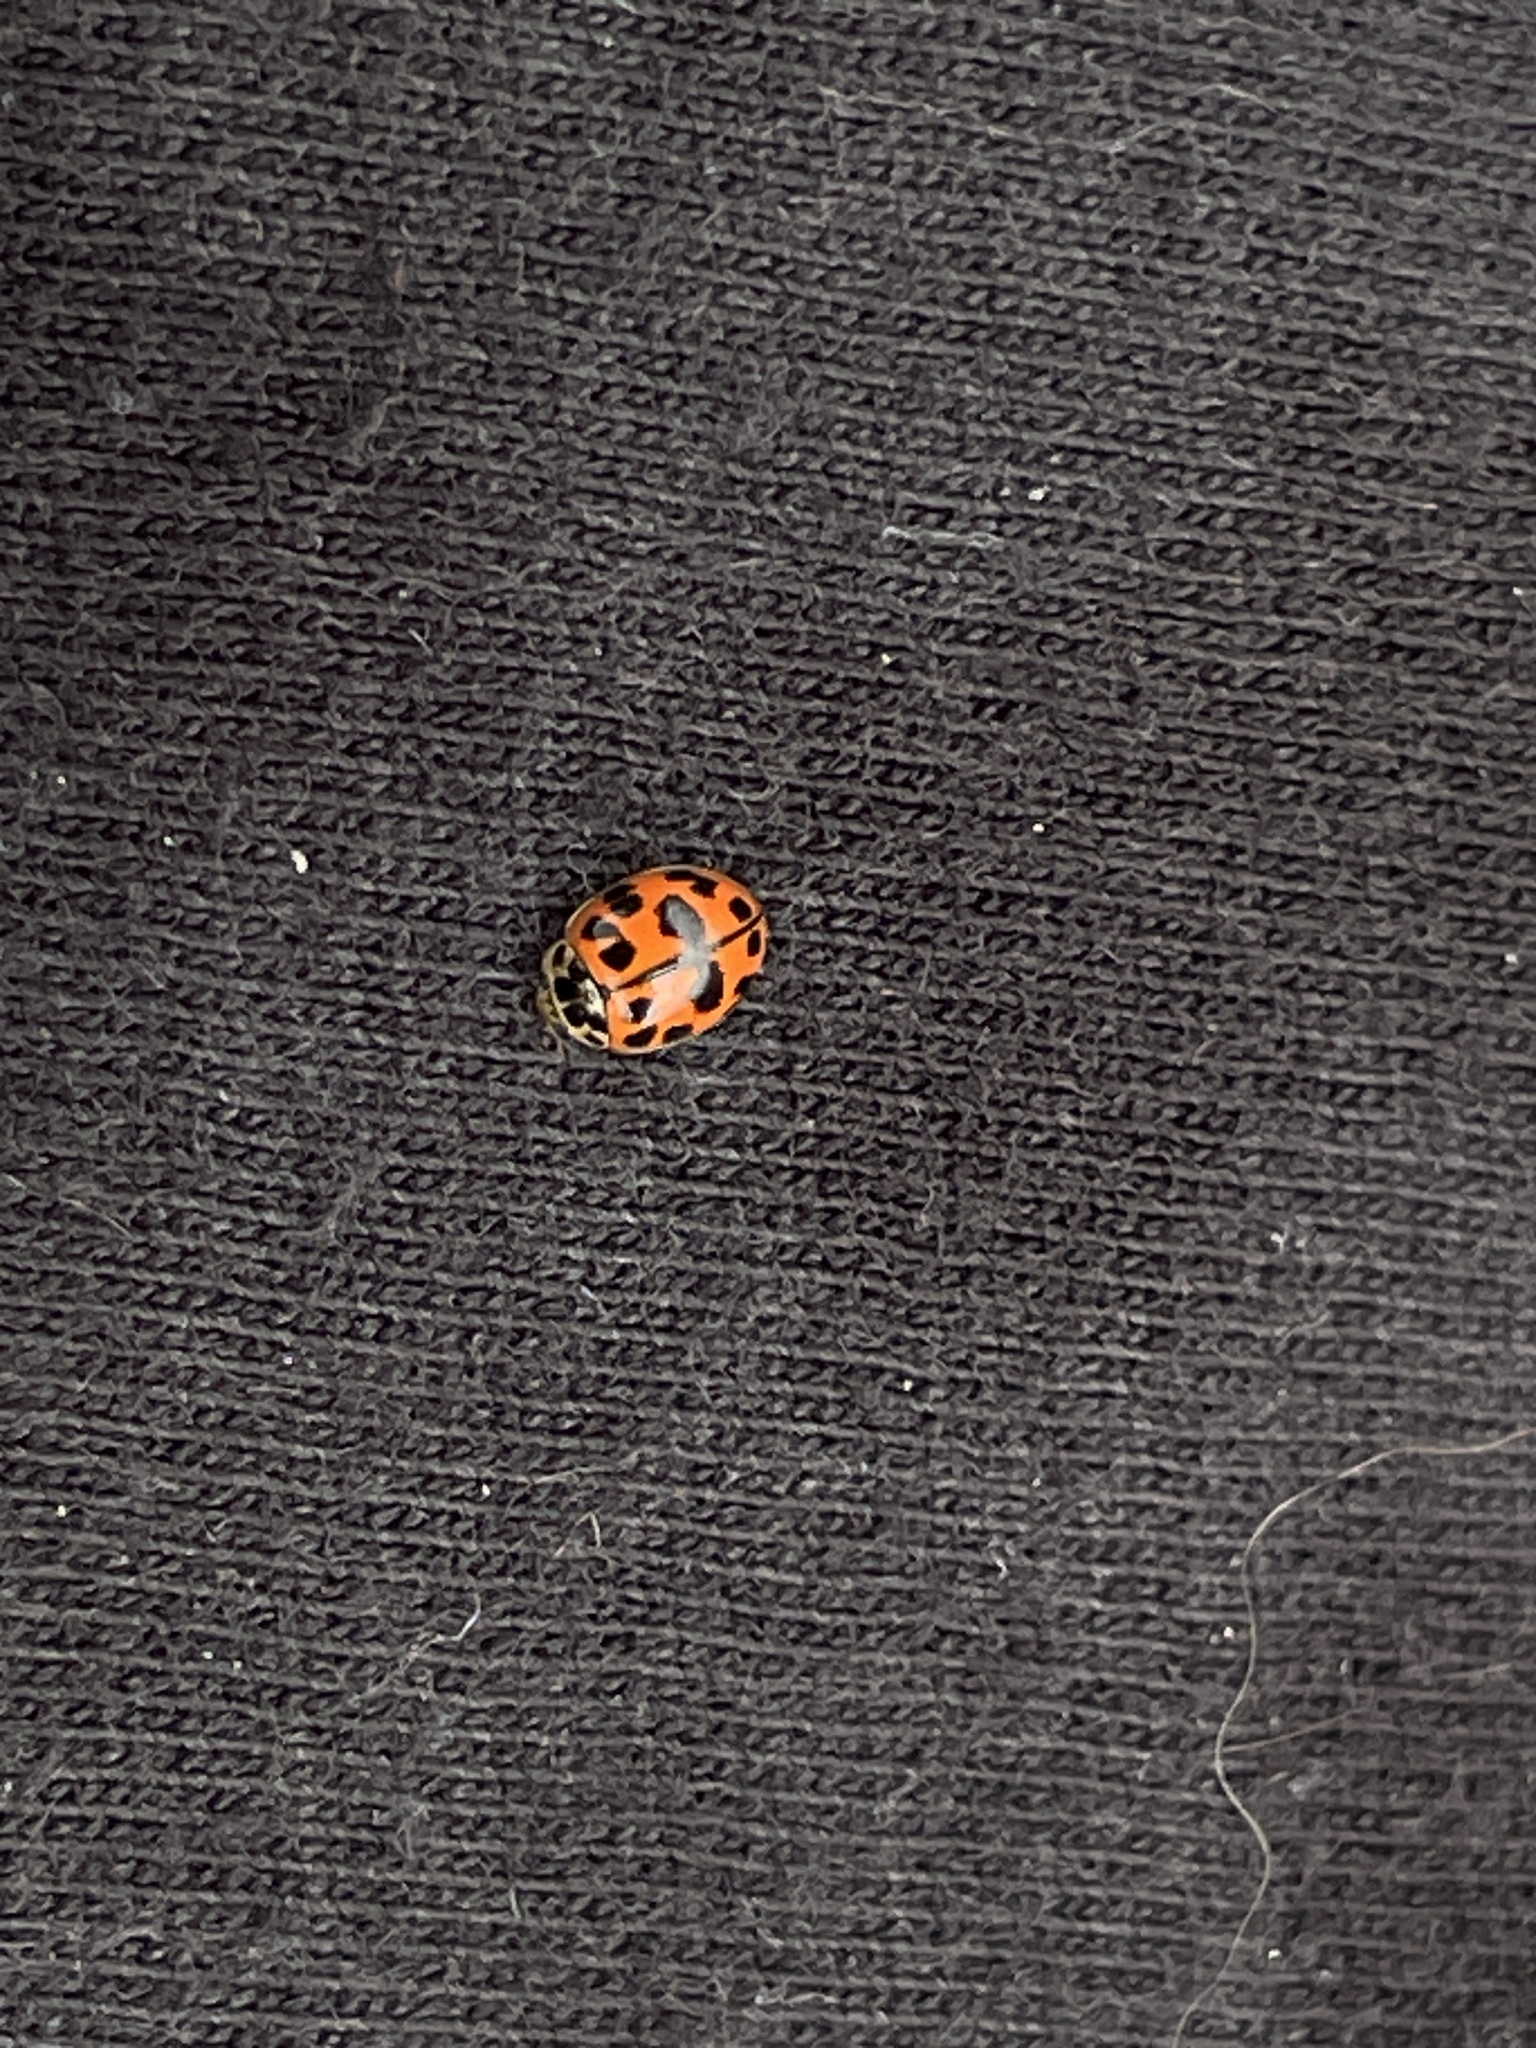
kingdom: Animalia
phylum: Arthropoda
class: Insecta
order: Coleoptera
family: Coccinellidae
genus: Oenopia
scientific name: Oenopia conglobata
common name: Ladybird beetle
